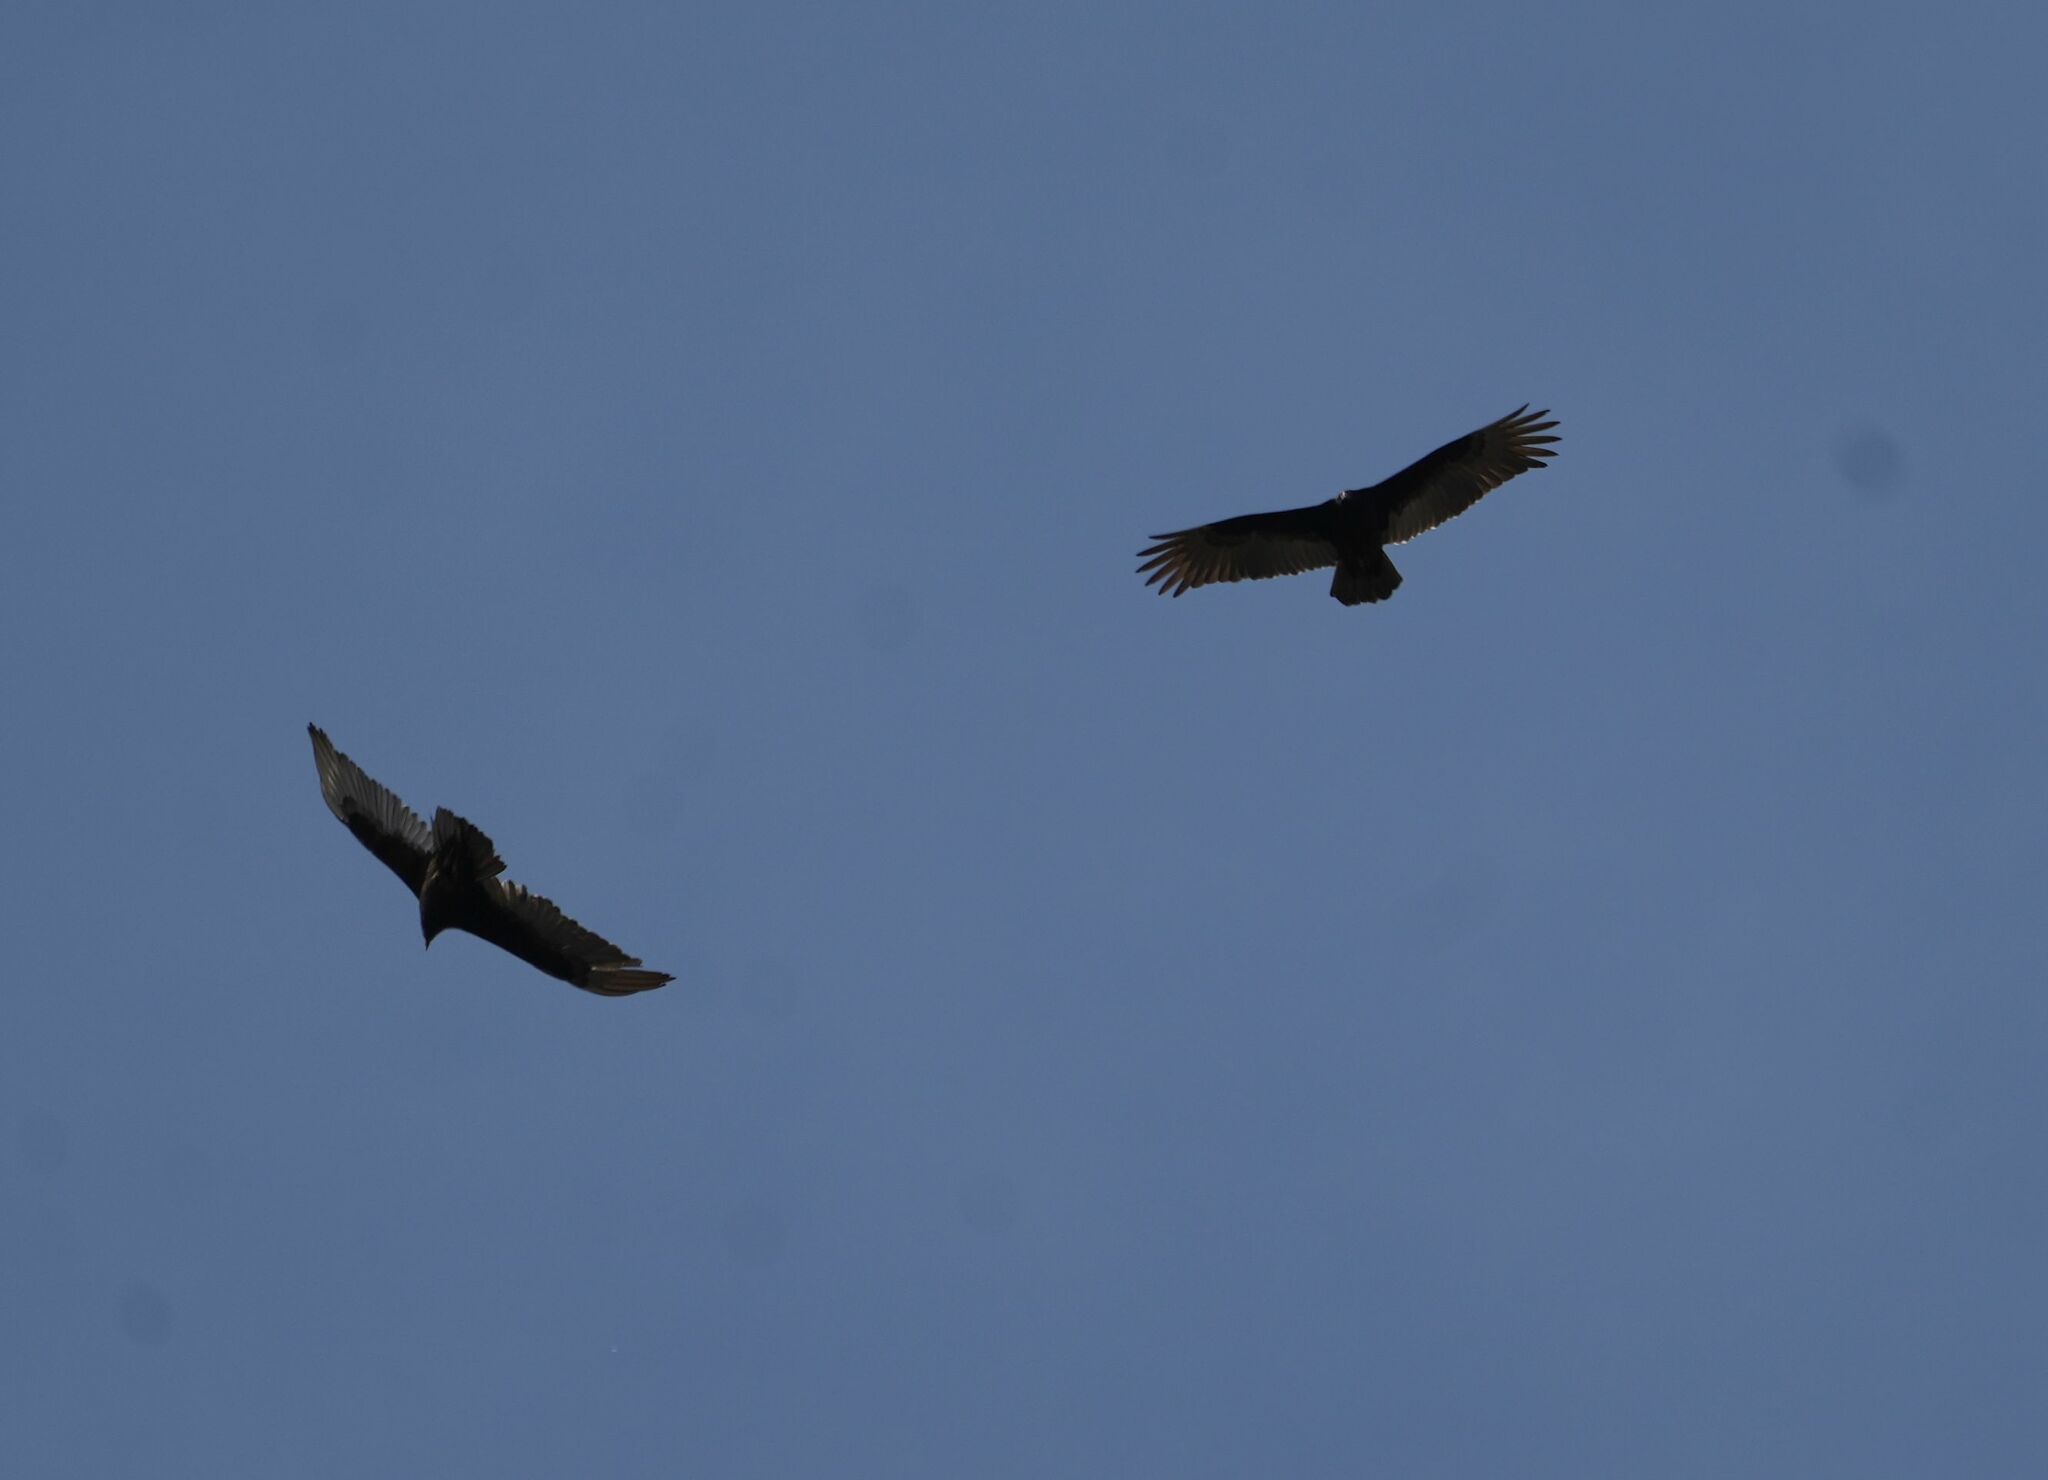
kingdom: Animalia
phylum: Chordata
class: Aves
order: Accipitriformes
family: Cathartidae
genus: Cathartes
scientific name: Cathartes aura
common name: Turkey vulture
